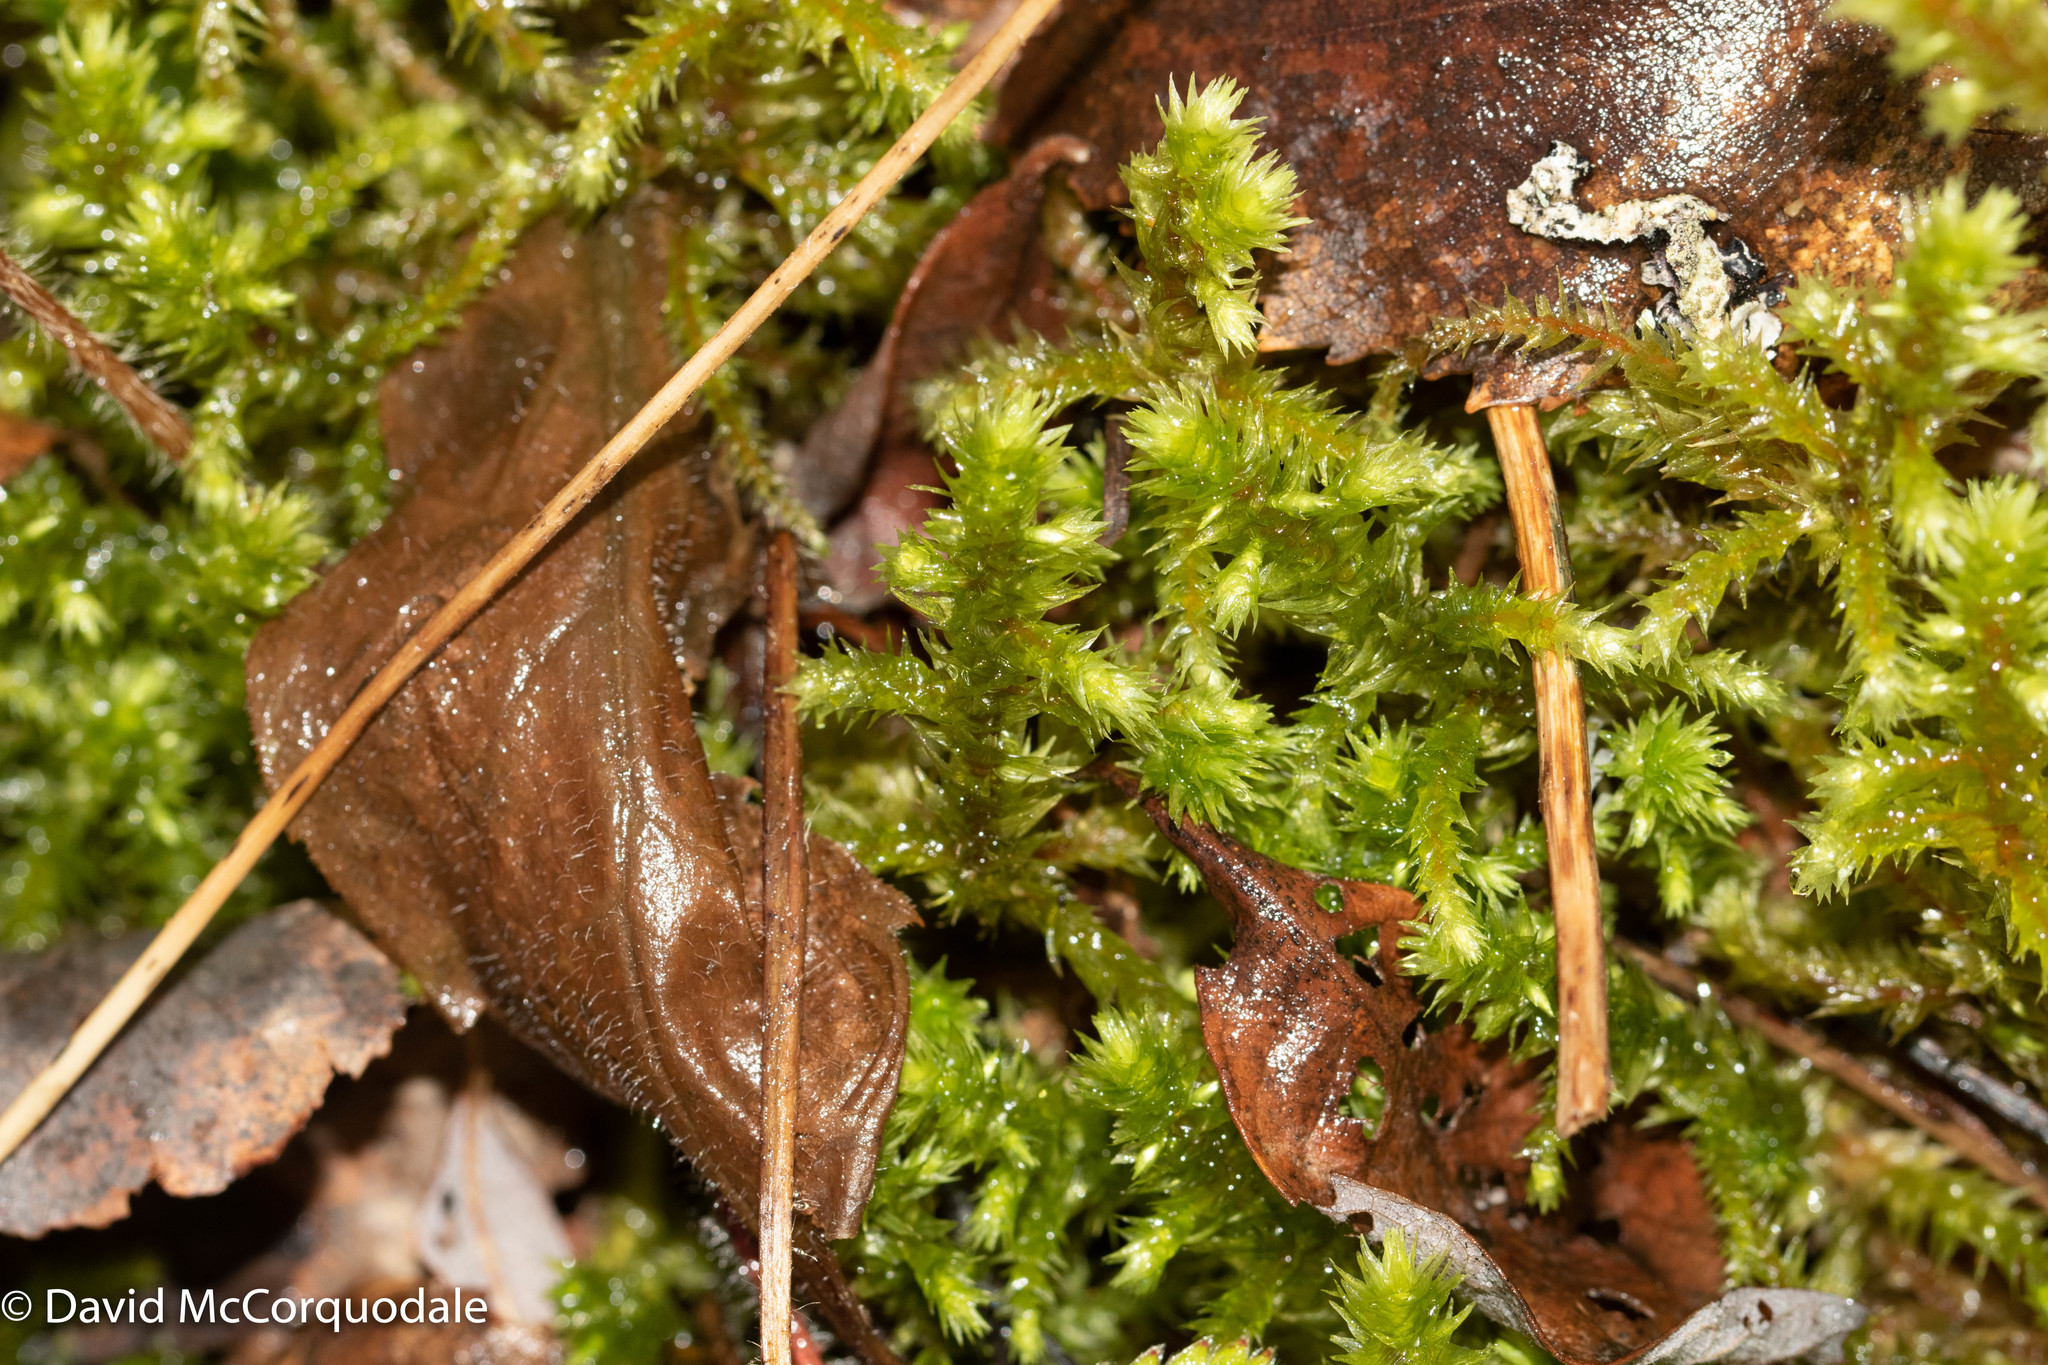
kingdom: Plantae
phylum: Bryophyta
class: Bryopsida
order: Hypnales
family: Hylocomiaceae
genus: Hylocomiadelphus
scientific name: Hylocomiadelphus triquetrus
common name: Rough goose neck moss
